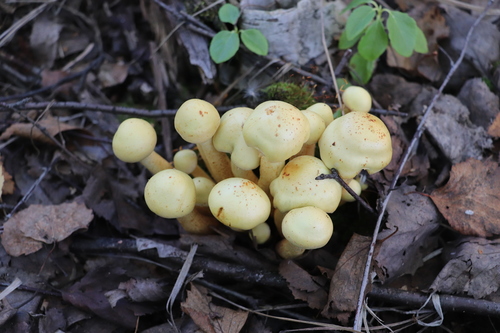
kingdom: Fungi
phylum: Basidiomycota
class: Agaricomycetes
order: Agaricales
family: Hymenogastraceae
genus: Flammula
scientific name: Flammula alnicola
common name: Alder scalycap
